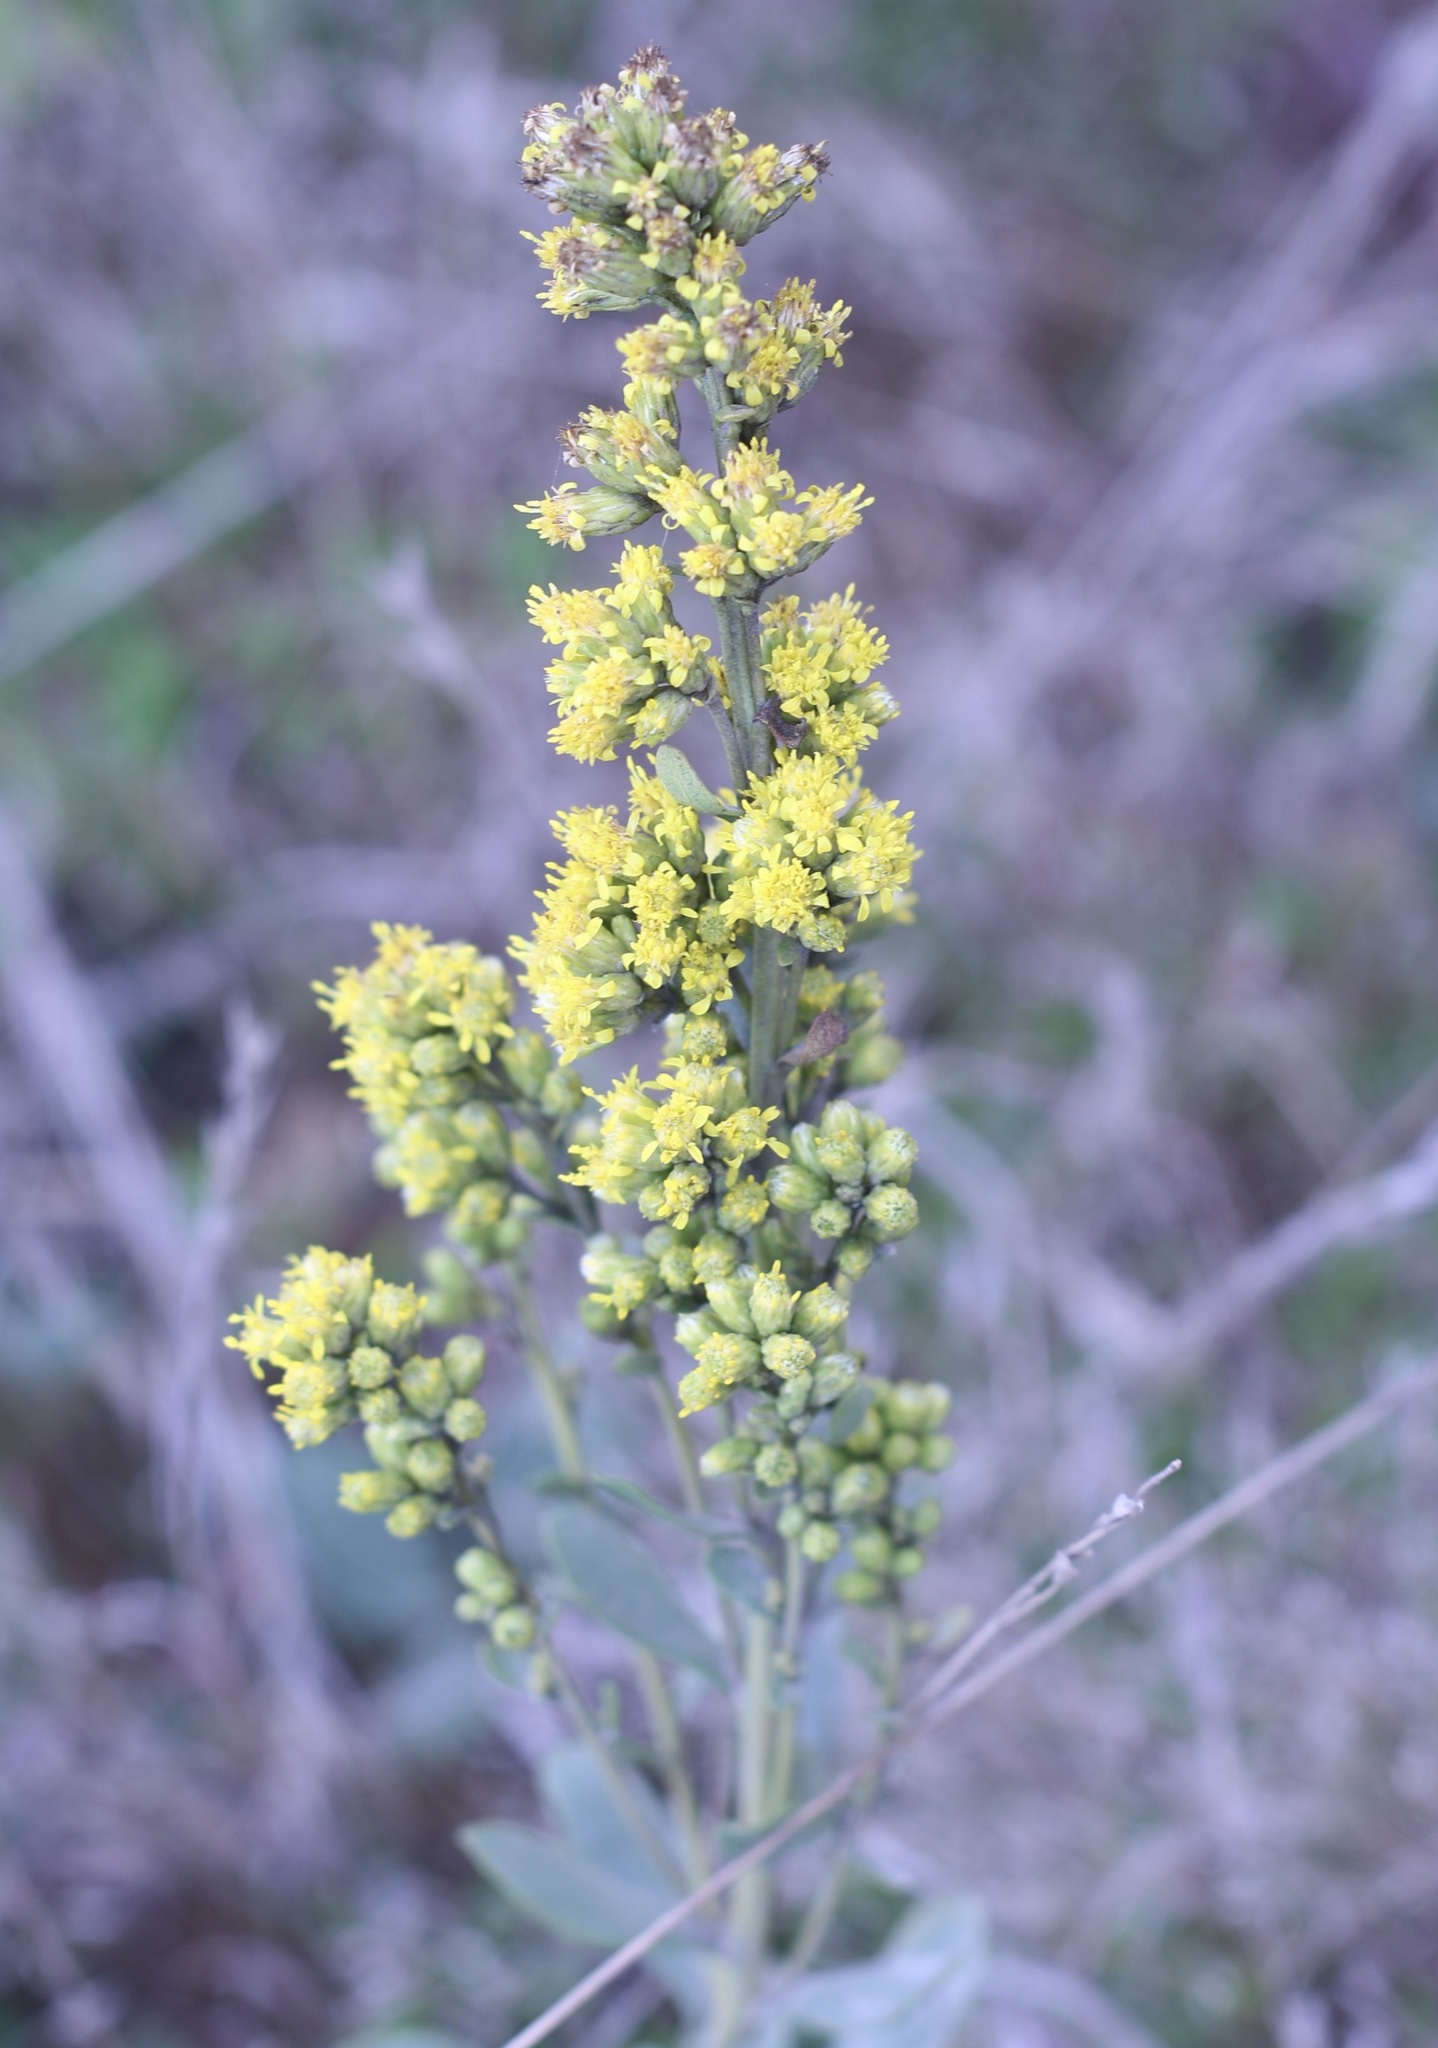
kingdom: Plantae
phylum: Tracheophyta
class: Magnoliopsida
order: Asterales
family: Asteraceae
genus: Solidago
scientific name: Solidago spathulata
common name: Coast goldenrod
